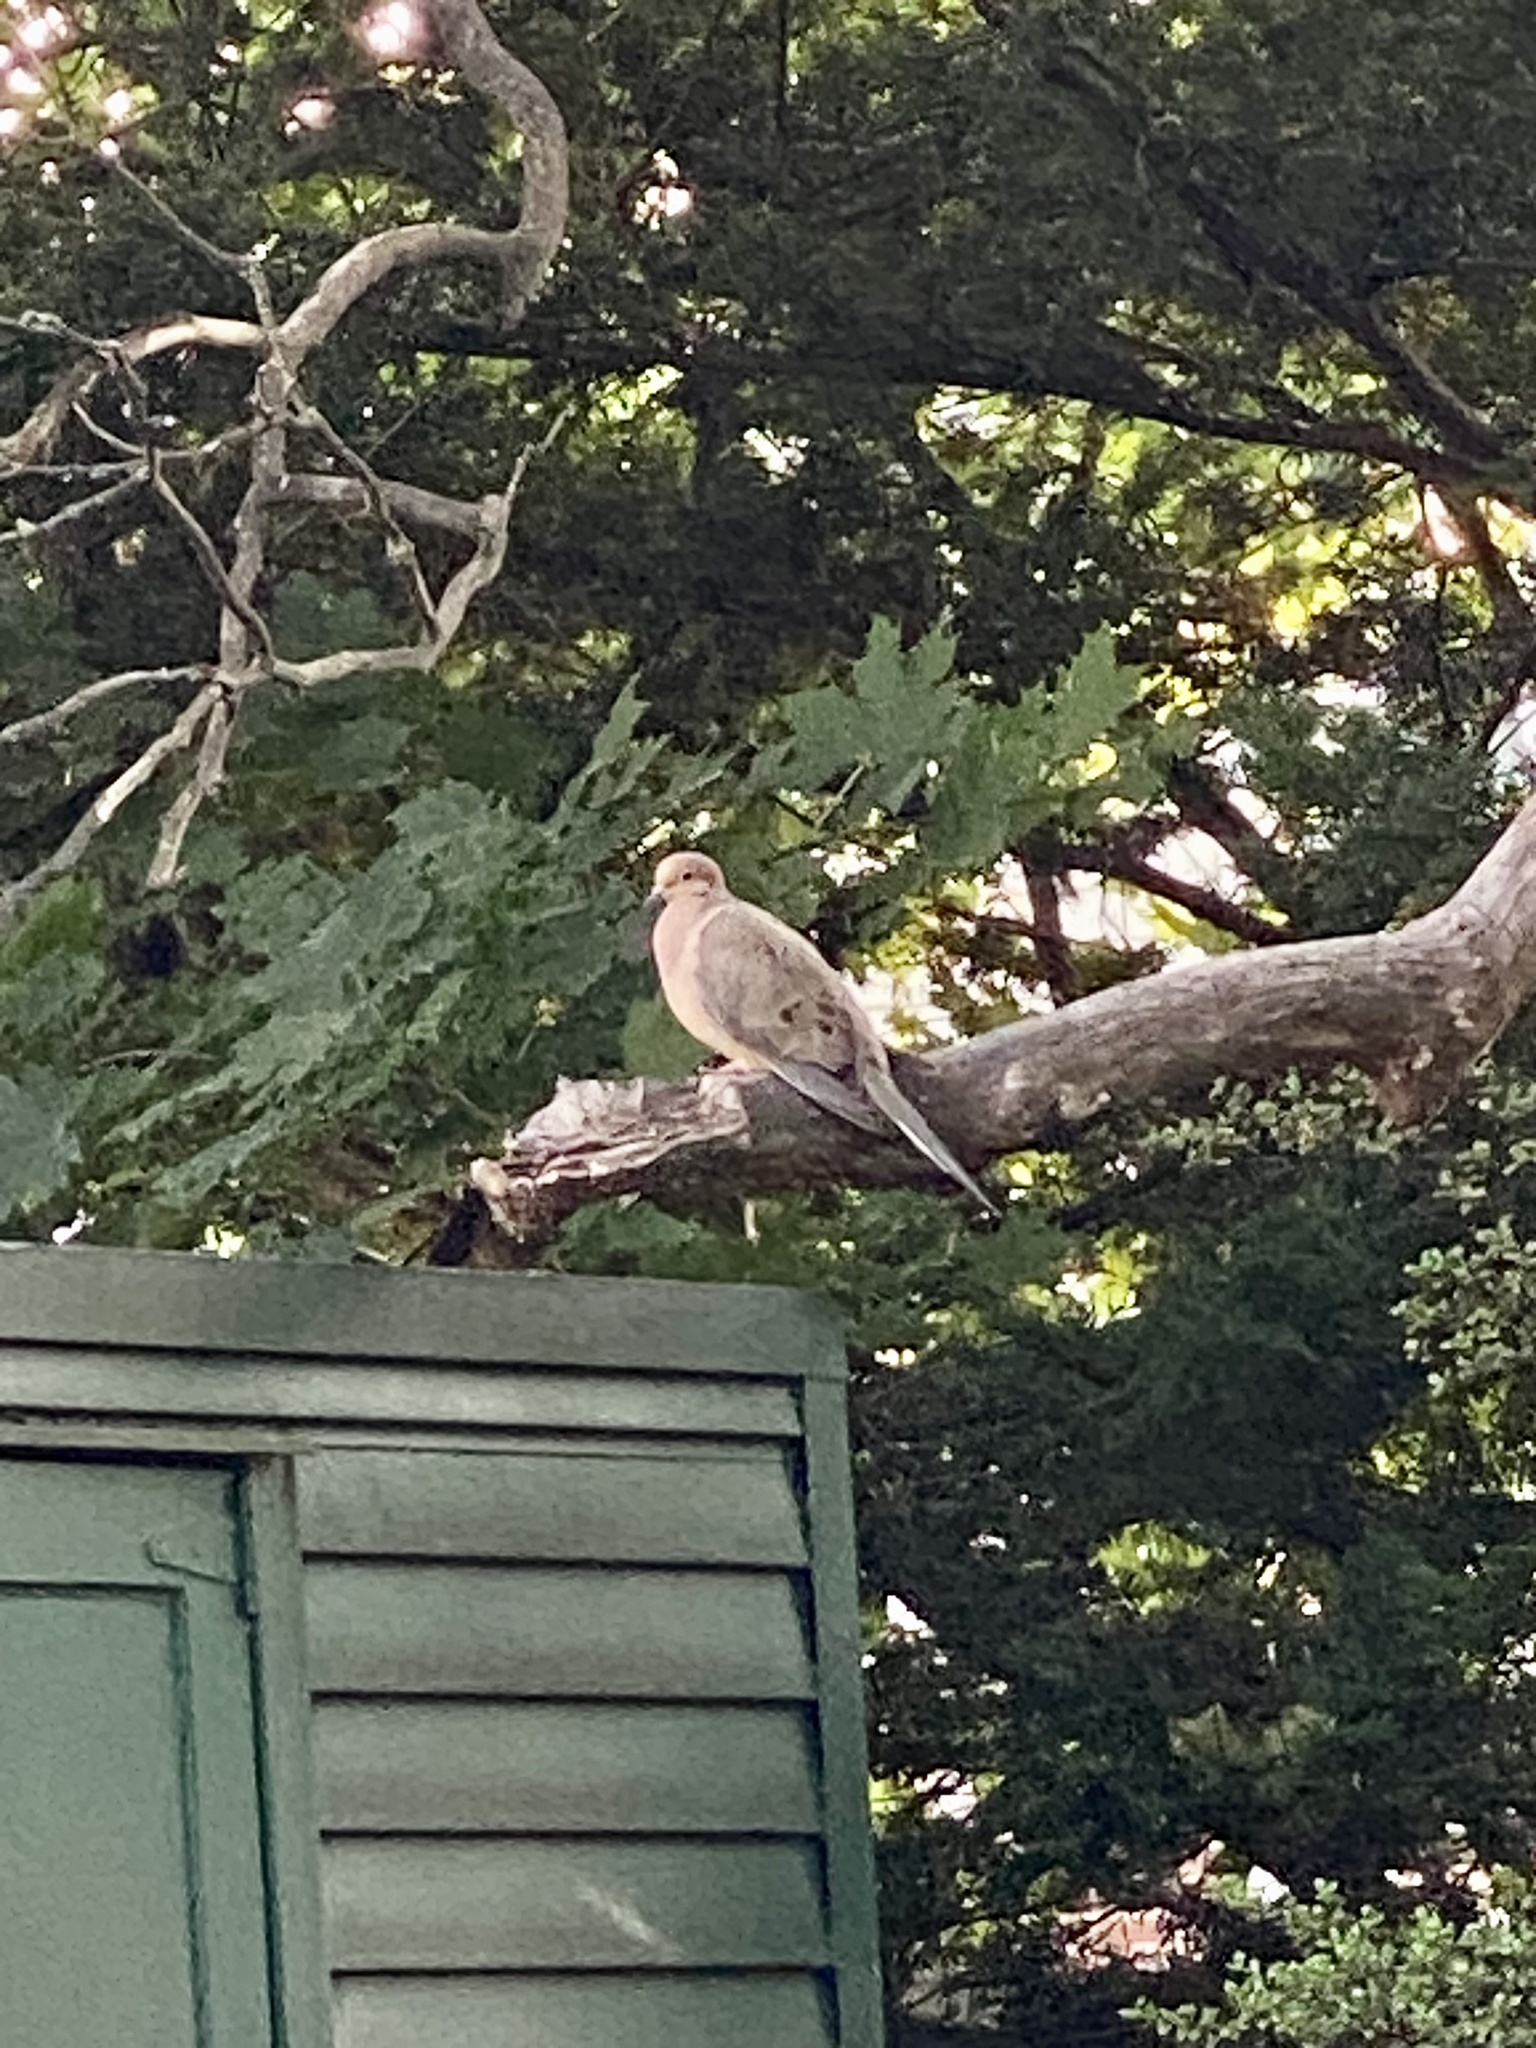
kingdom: Animalia
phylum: Chordata
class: Aves
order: Columbiformes
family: Columbidae
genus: Zenaida
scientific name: Zenaida macroura
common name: Mourning dove
